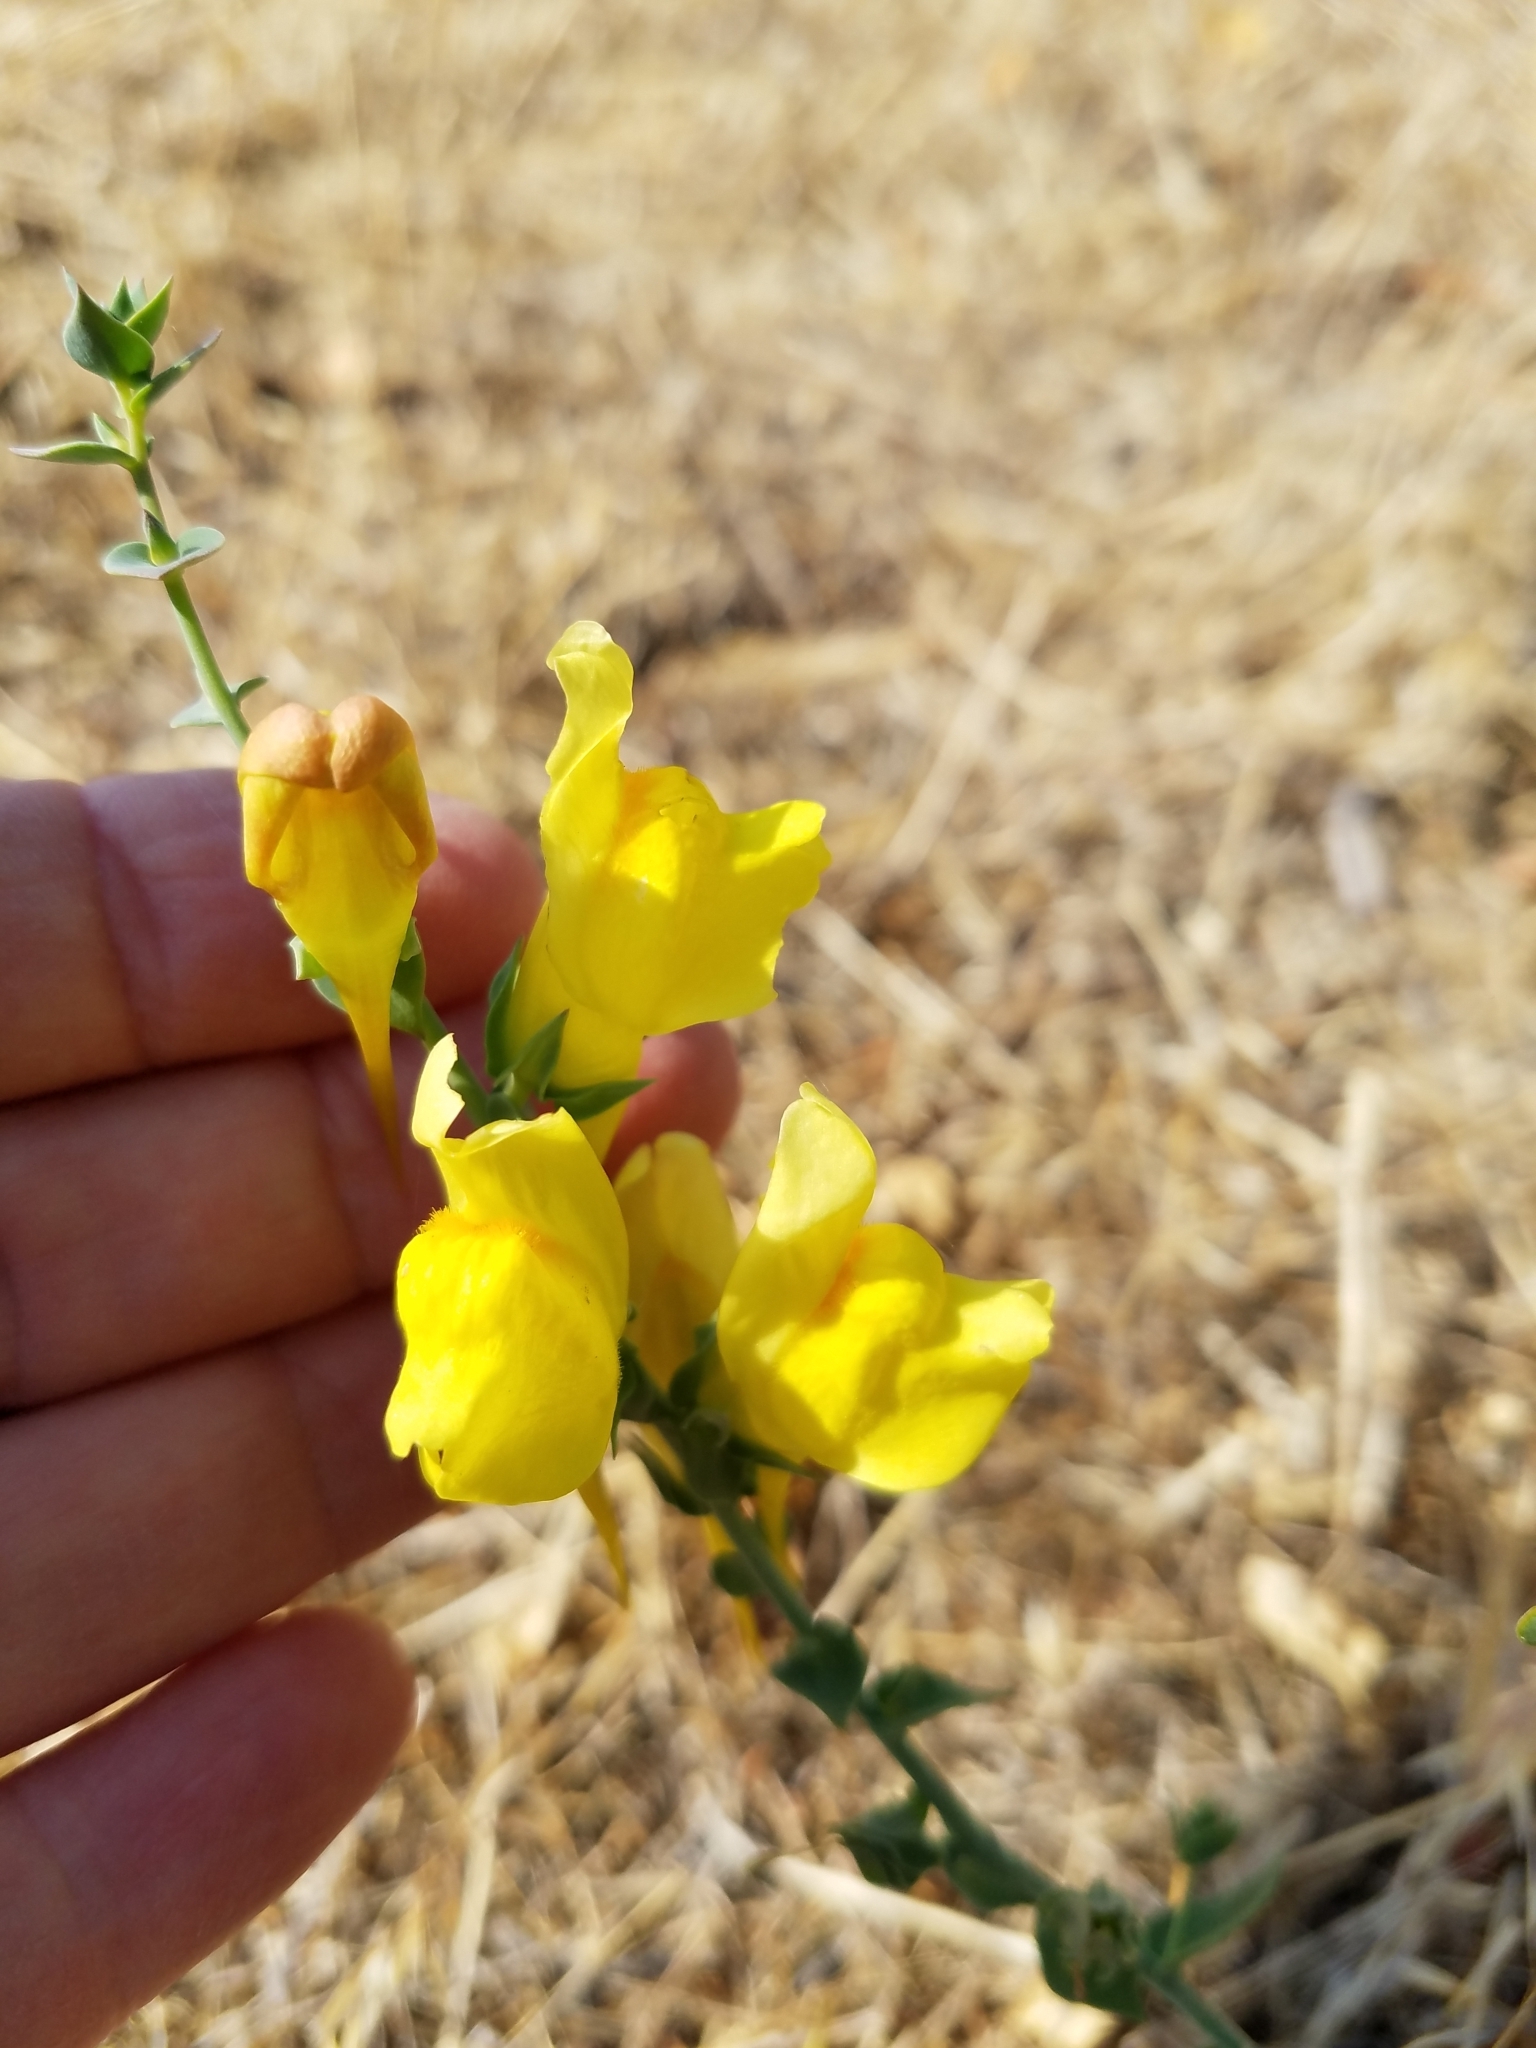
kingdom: Plantae
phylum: Tracheophyta
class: Magnoliopsida
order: Lamiales
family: Plantaginaceae
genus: Linaria
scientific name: Linaria dalmatica
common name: Dalmatian toadflax
